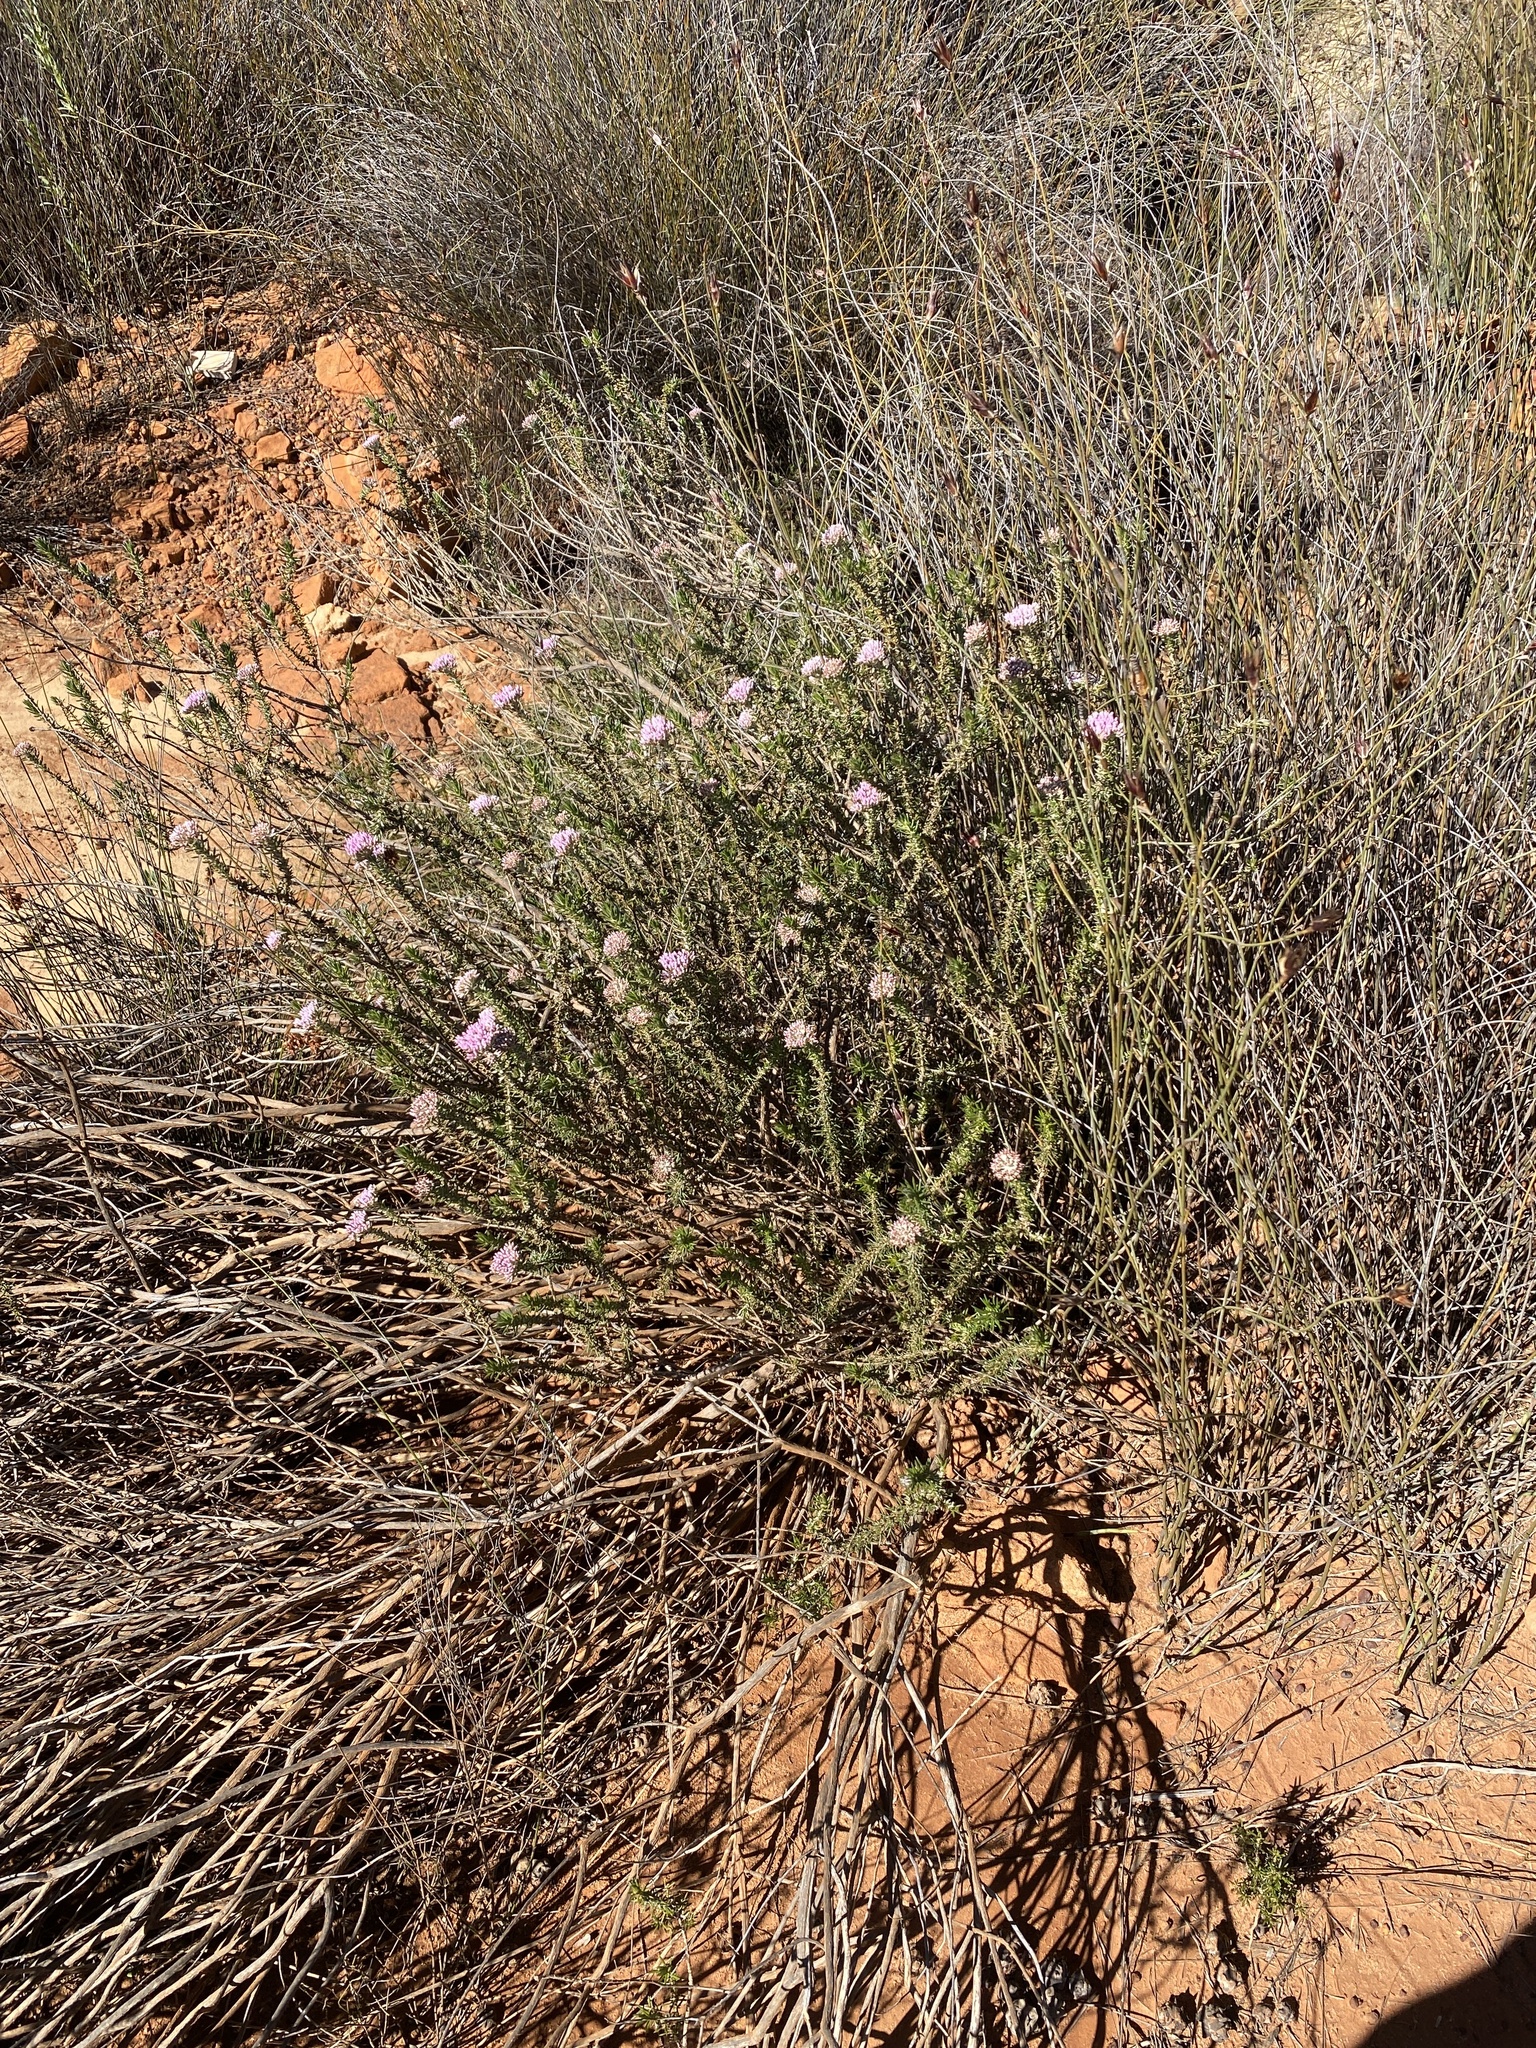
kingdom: Plantae
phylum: Tracheophyta
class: Magnoliopsida
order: Asterales
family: Asteraceae
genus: Metalasia
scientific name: Metalasia fastigiata
